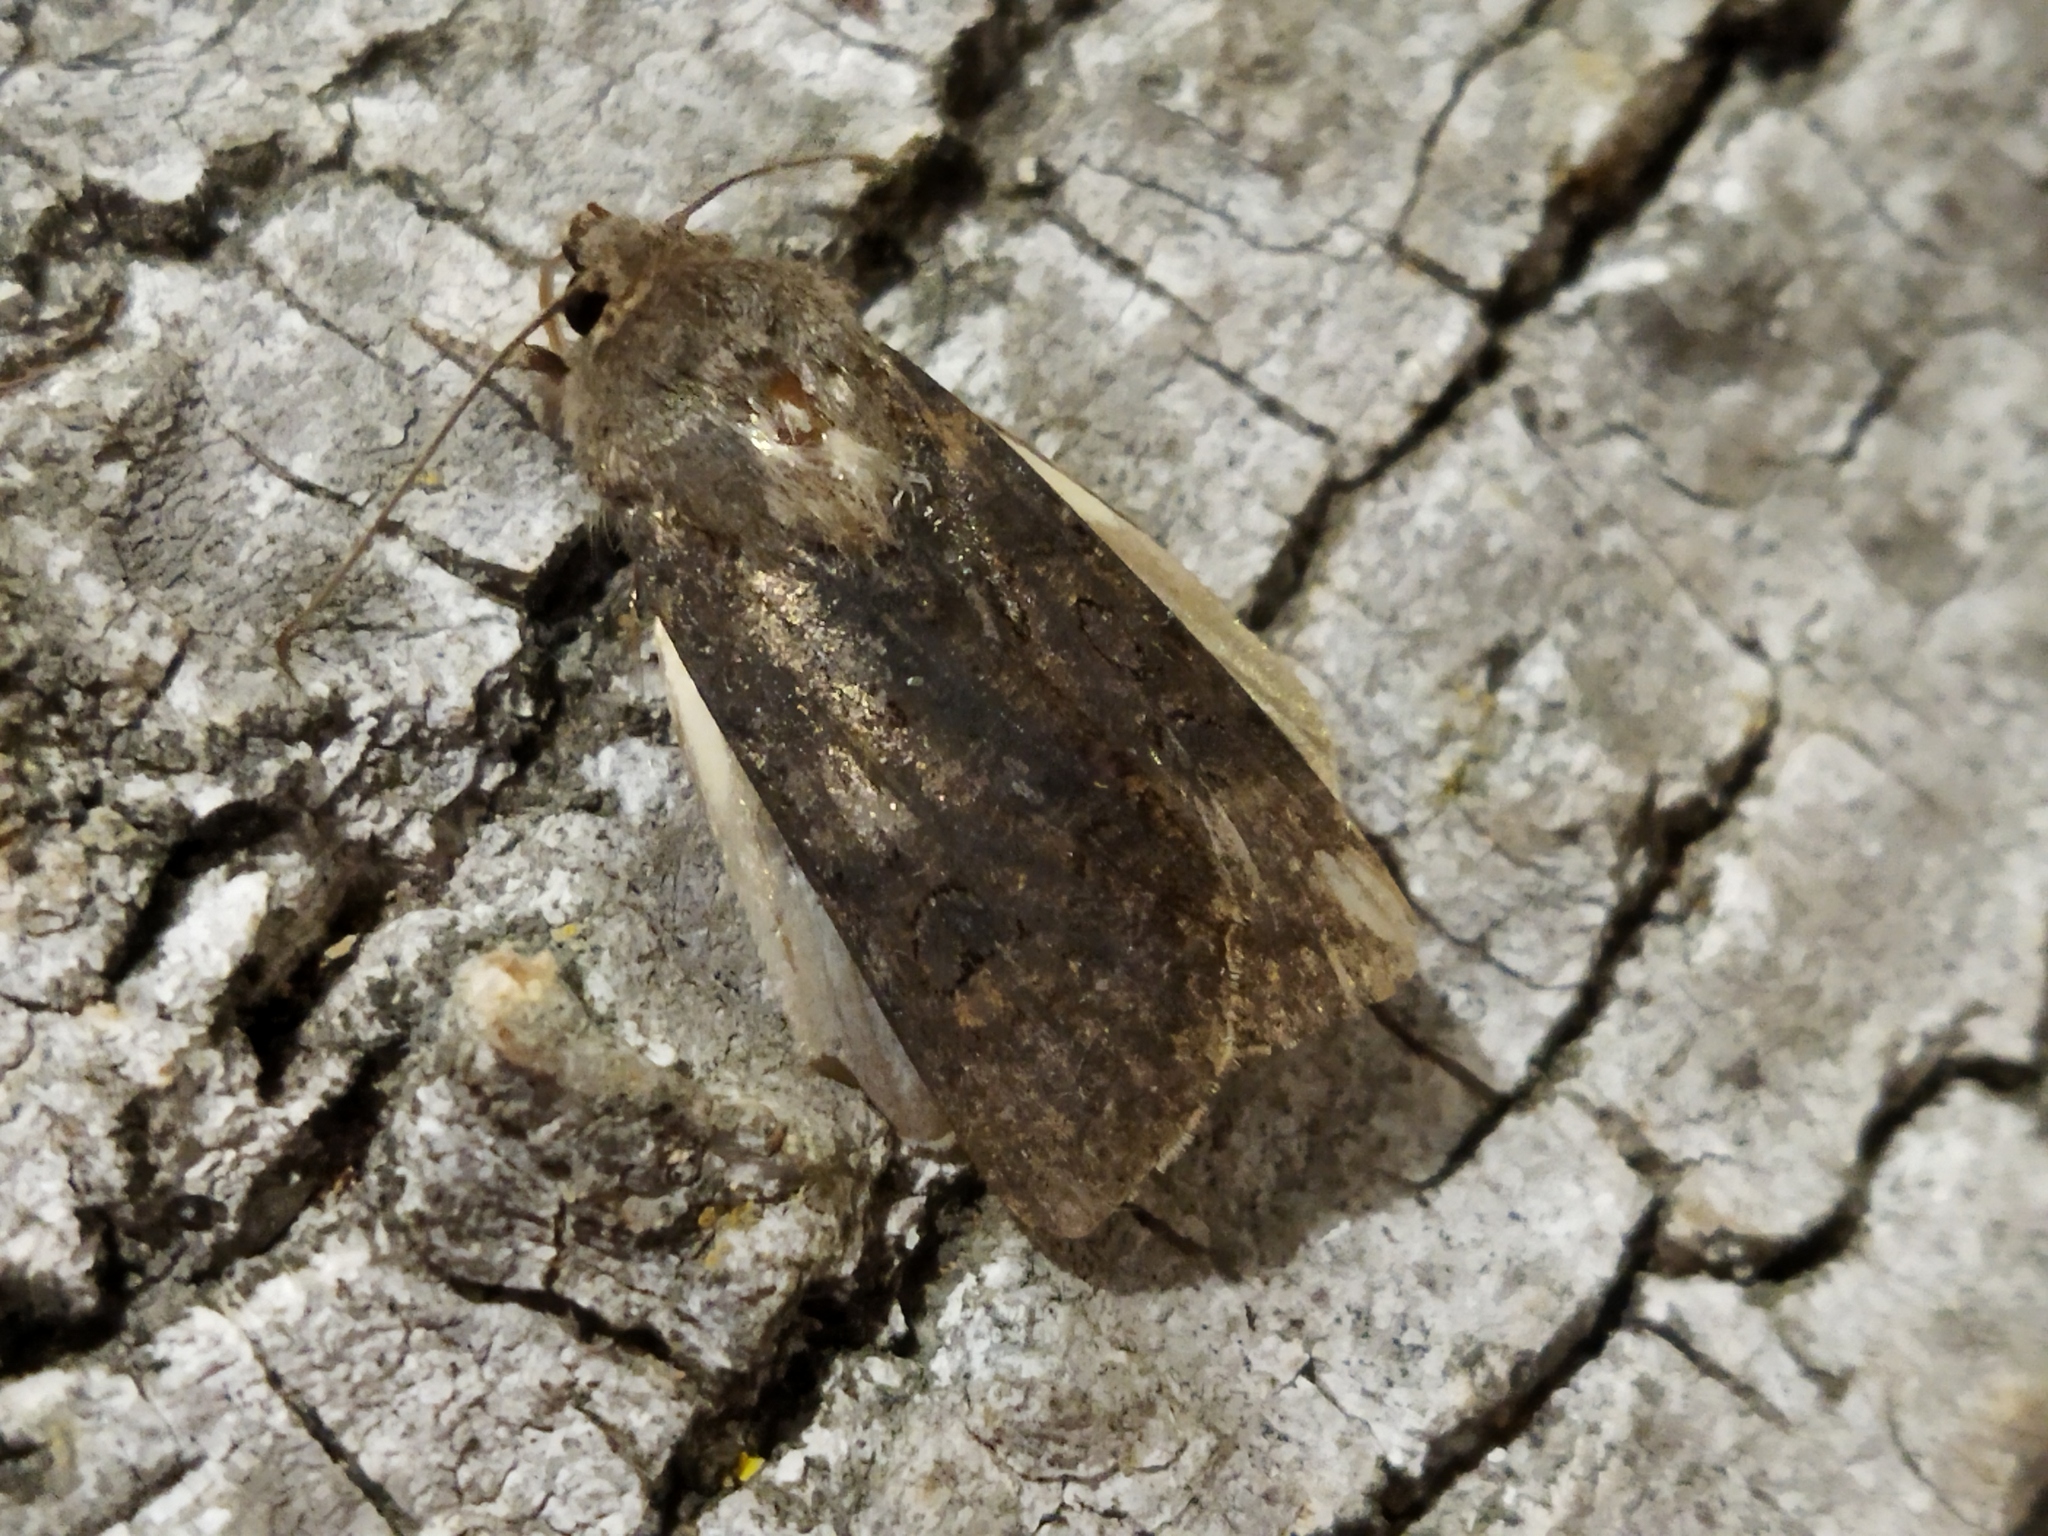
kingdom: Animalia
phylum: Arthropoda
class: Insecta
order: Lepidoptera
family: Noctuidae
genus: Agrotis
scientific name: Agrotis segetum
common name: Turnip moth
